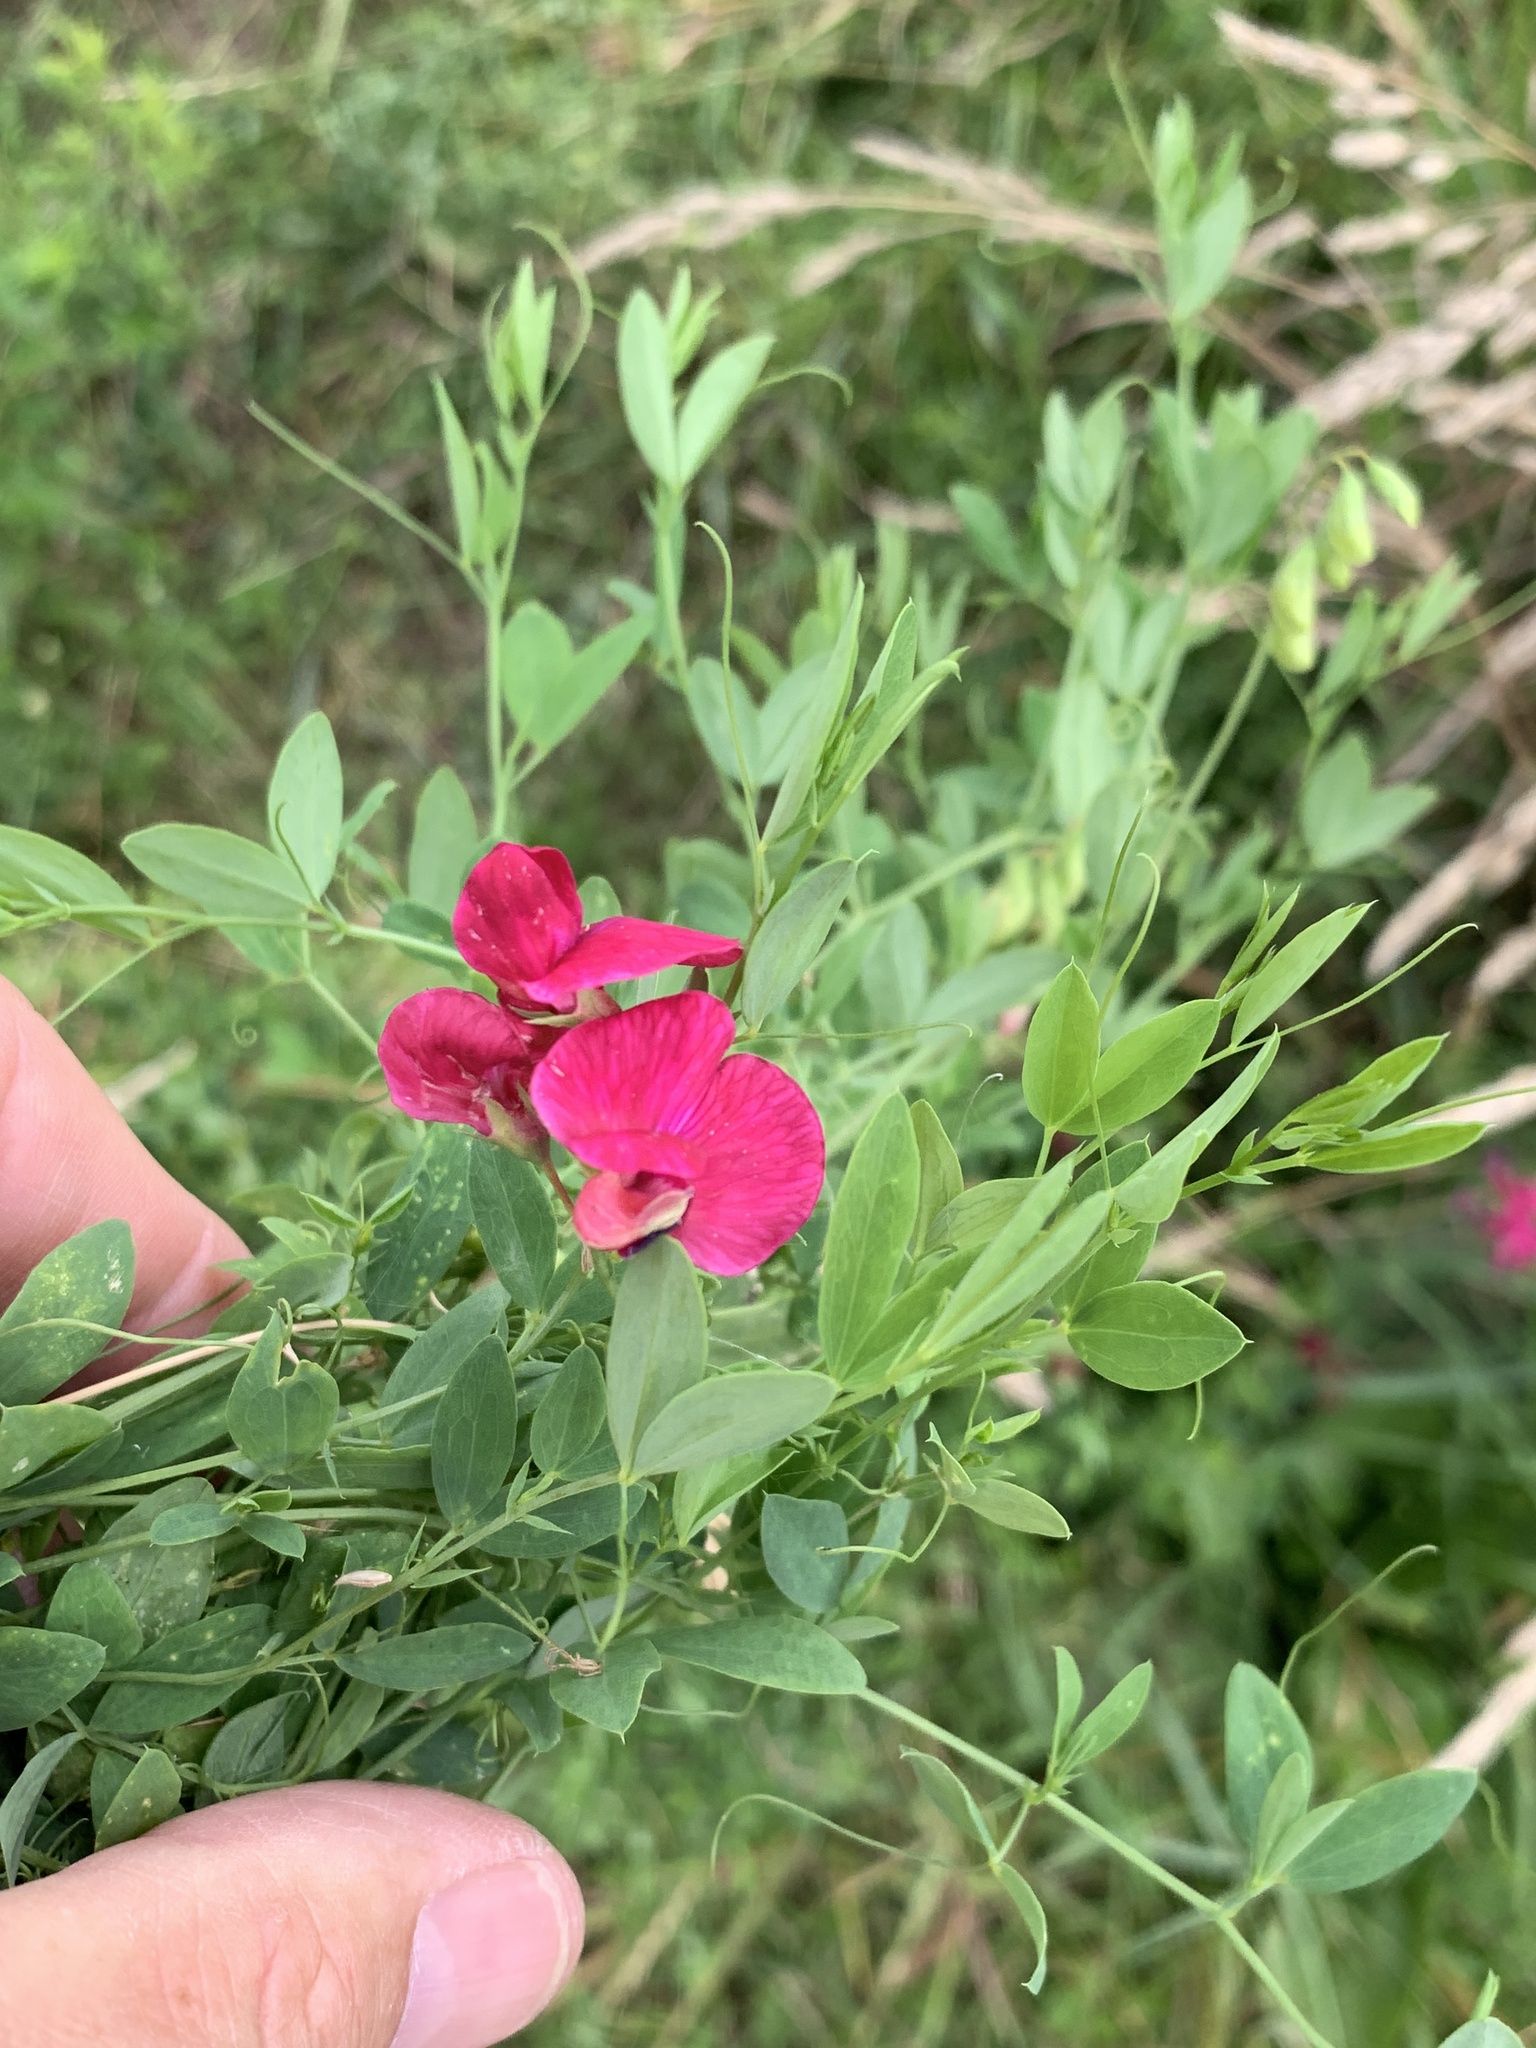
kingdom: Plantae
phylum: Tracheophyta
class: Magnoliopsida
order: Fabales
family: Fabaceae
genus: Lathyrus
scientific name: Lathyrus tuberosus
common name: Tuberous pea
